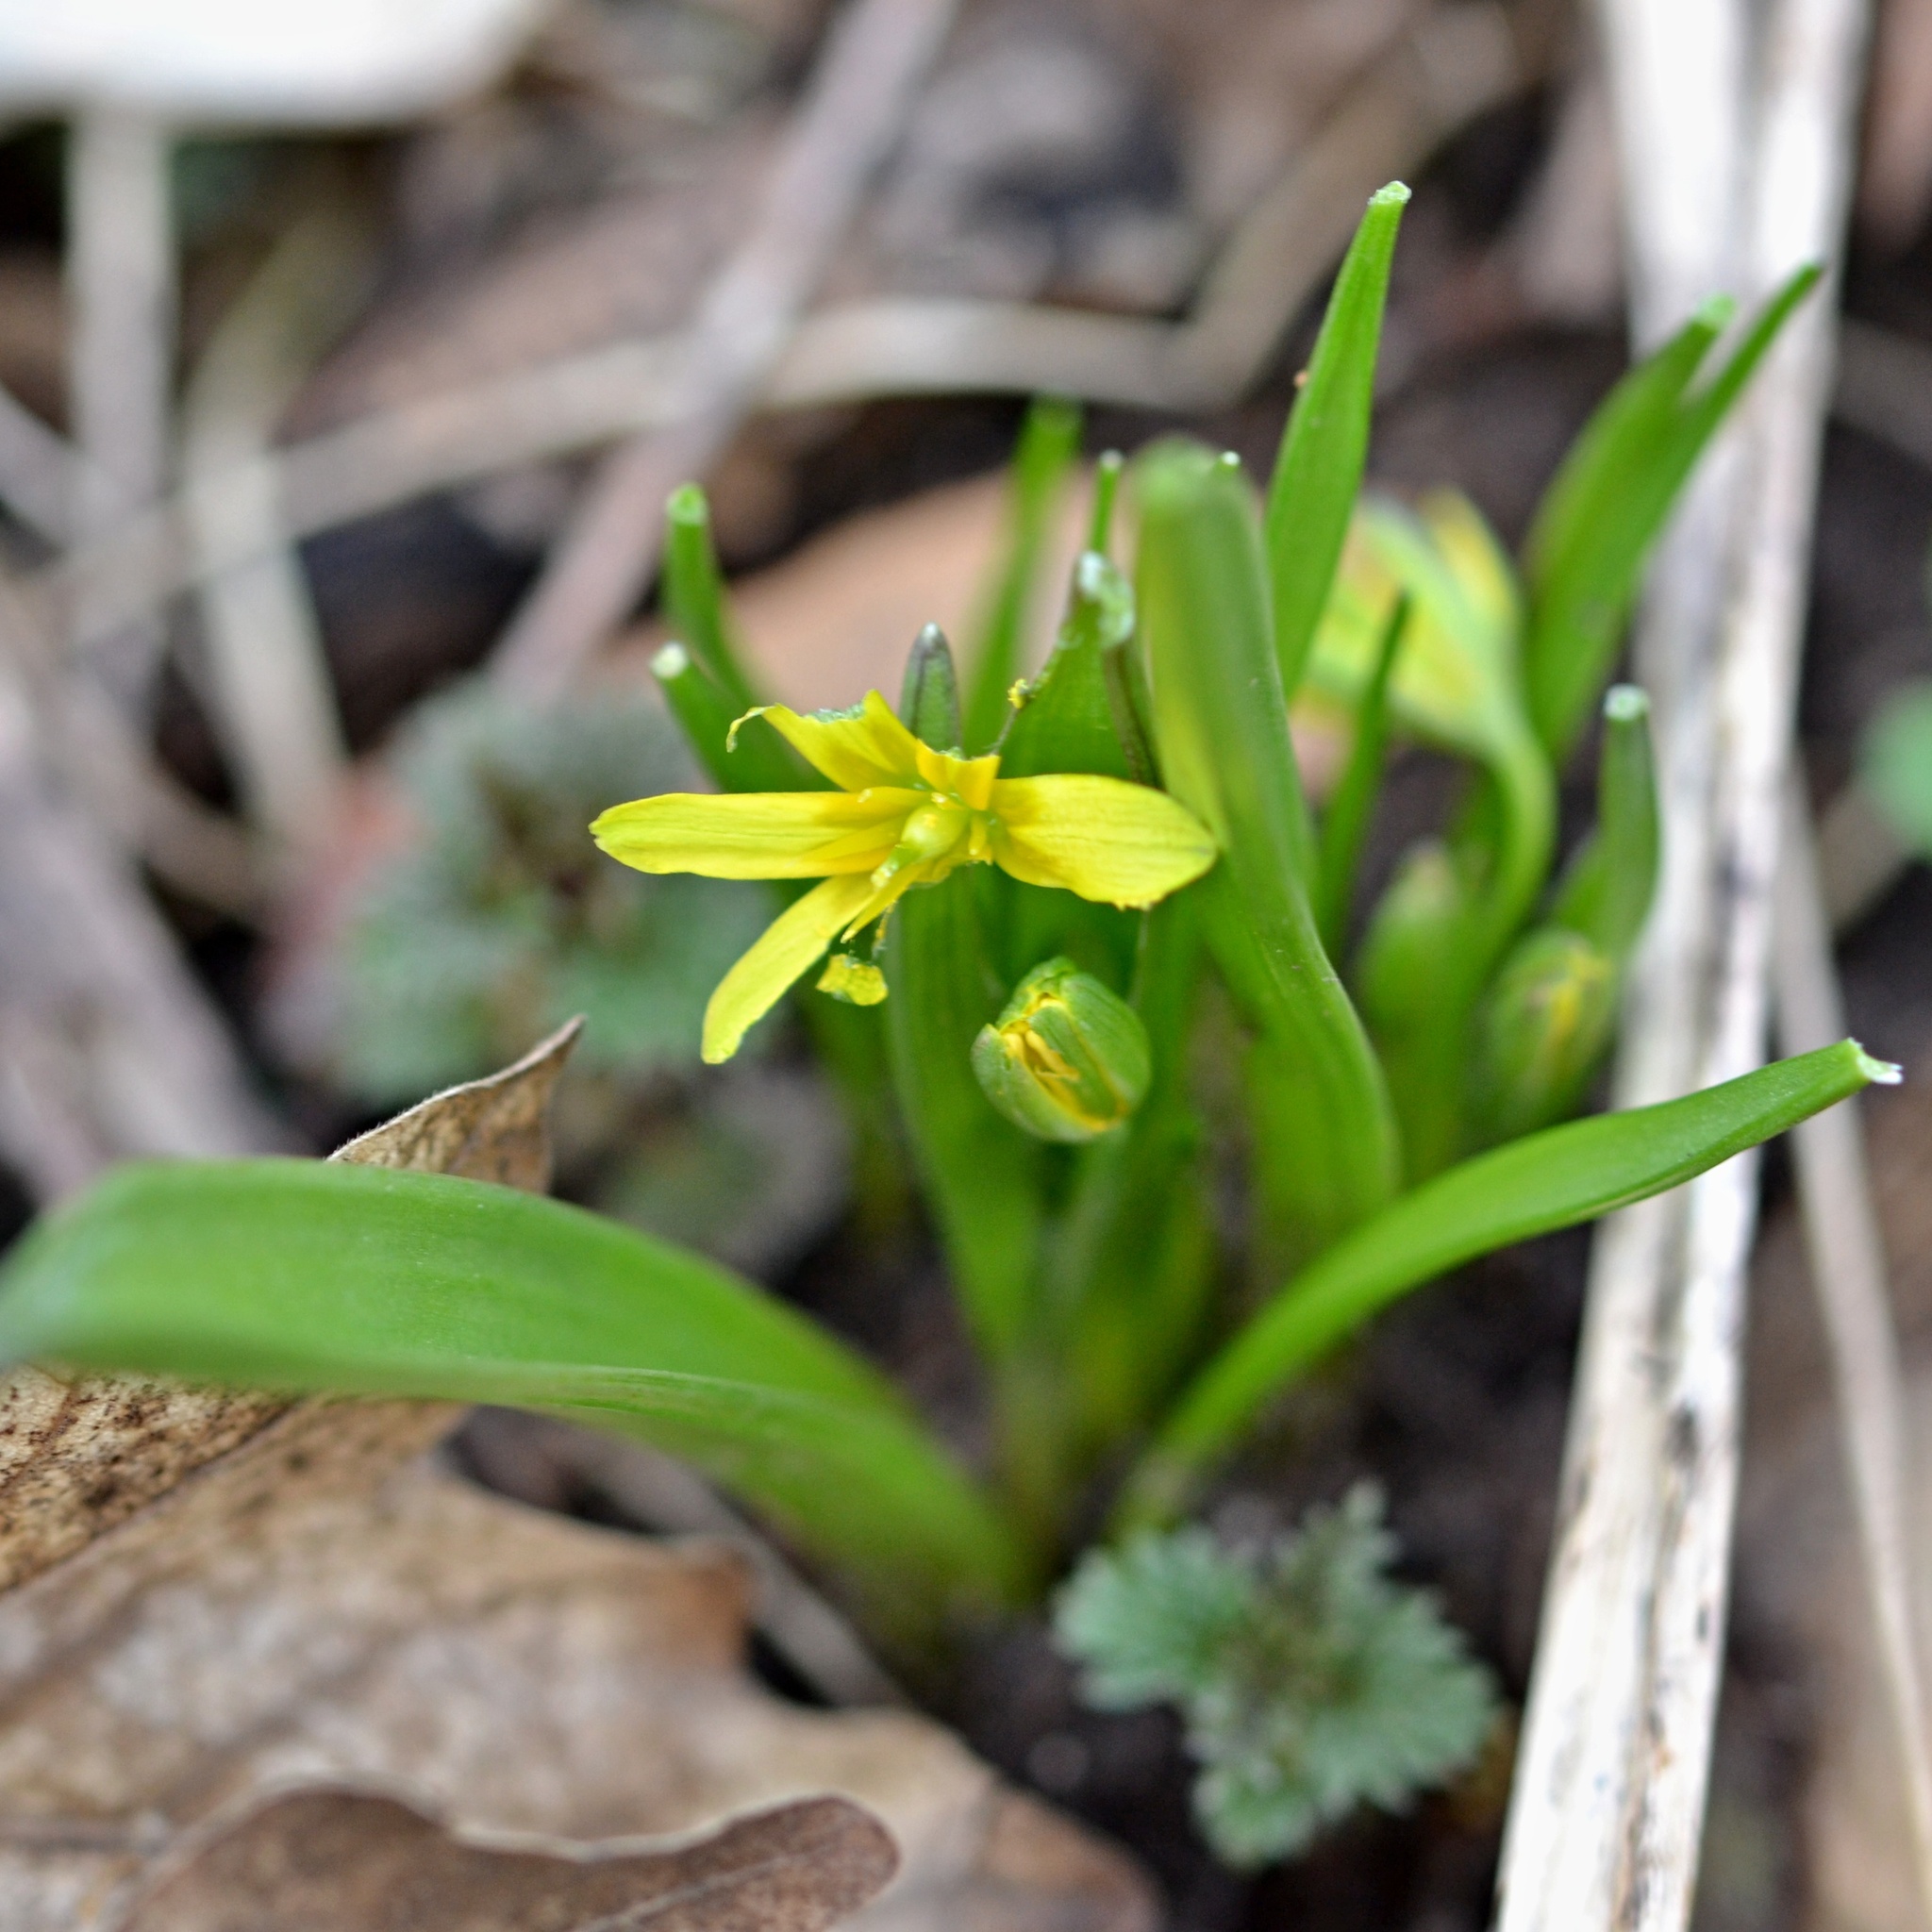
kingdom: Plantae
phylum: Tracheophyta
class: Liliopsida
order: Liliales
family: Liliaceae
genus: Gagea
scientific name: Gagea lutea
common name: Yellow star-of-bethlehem
